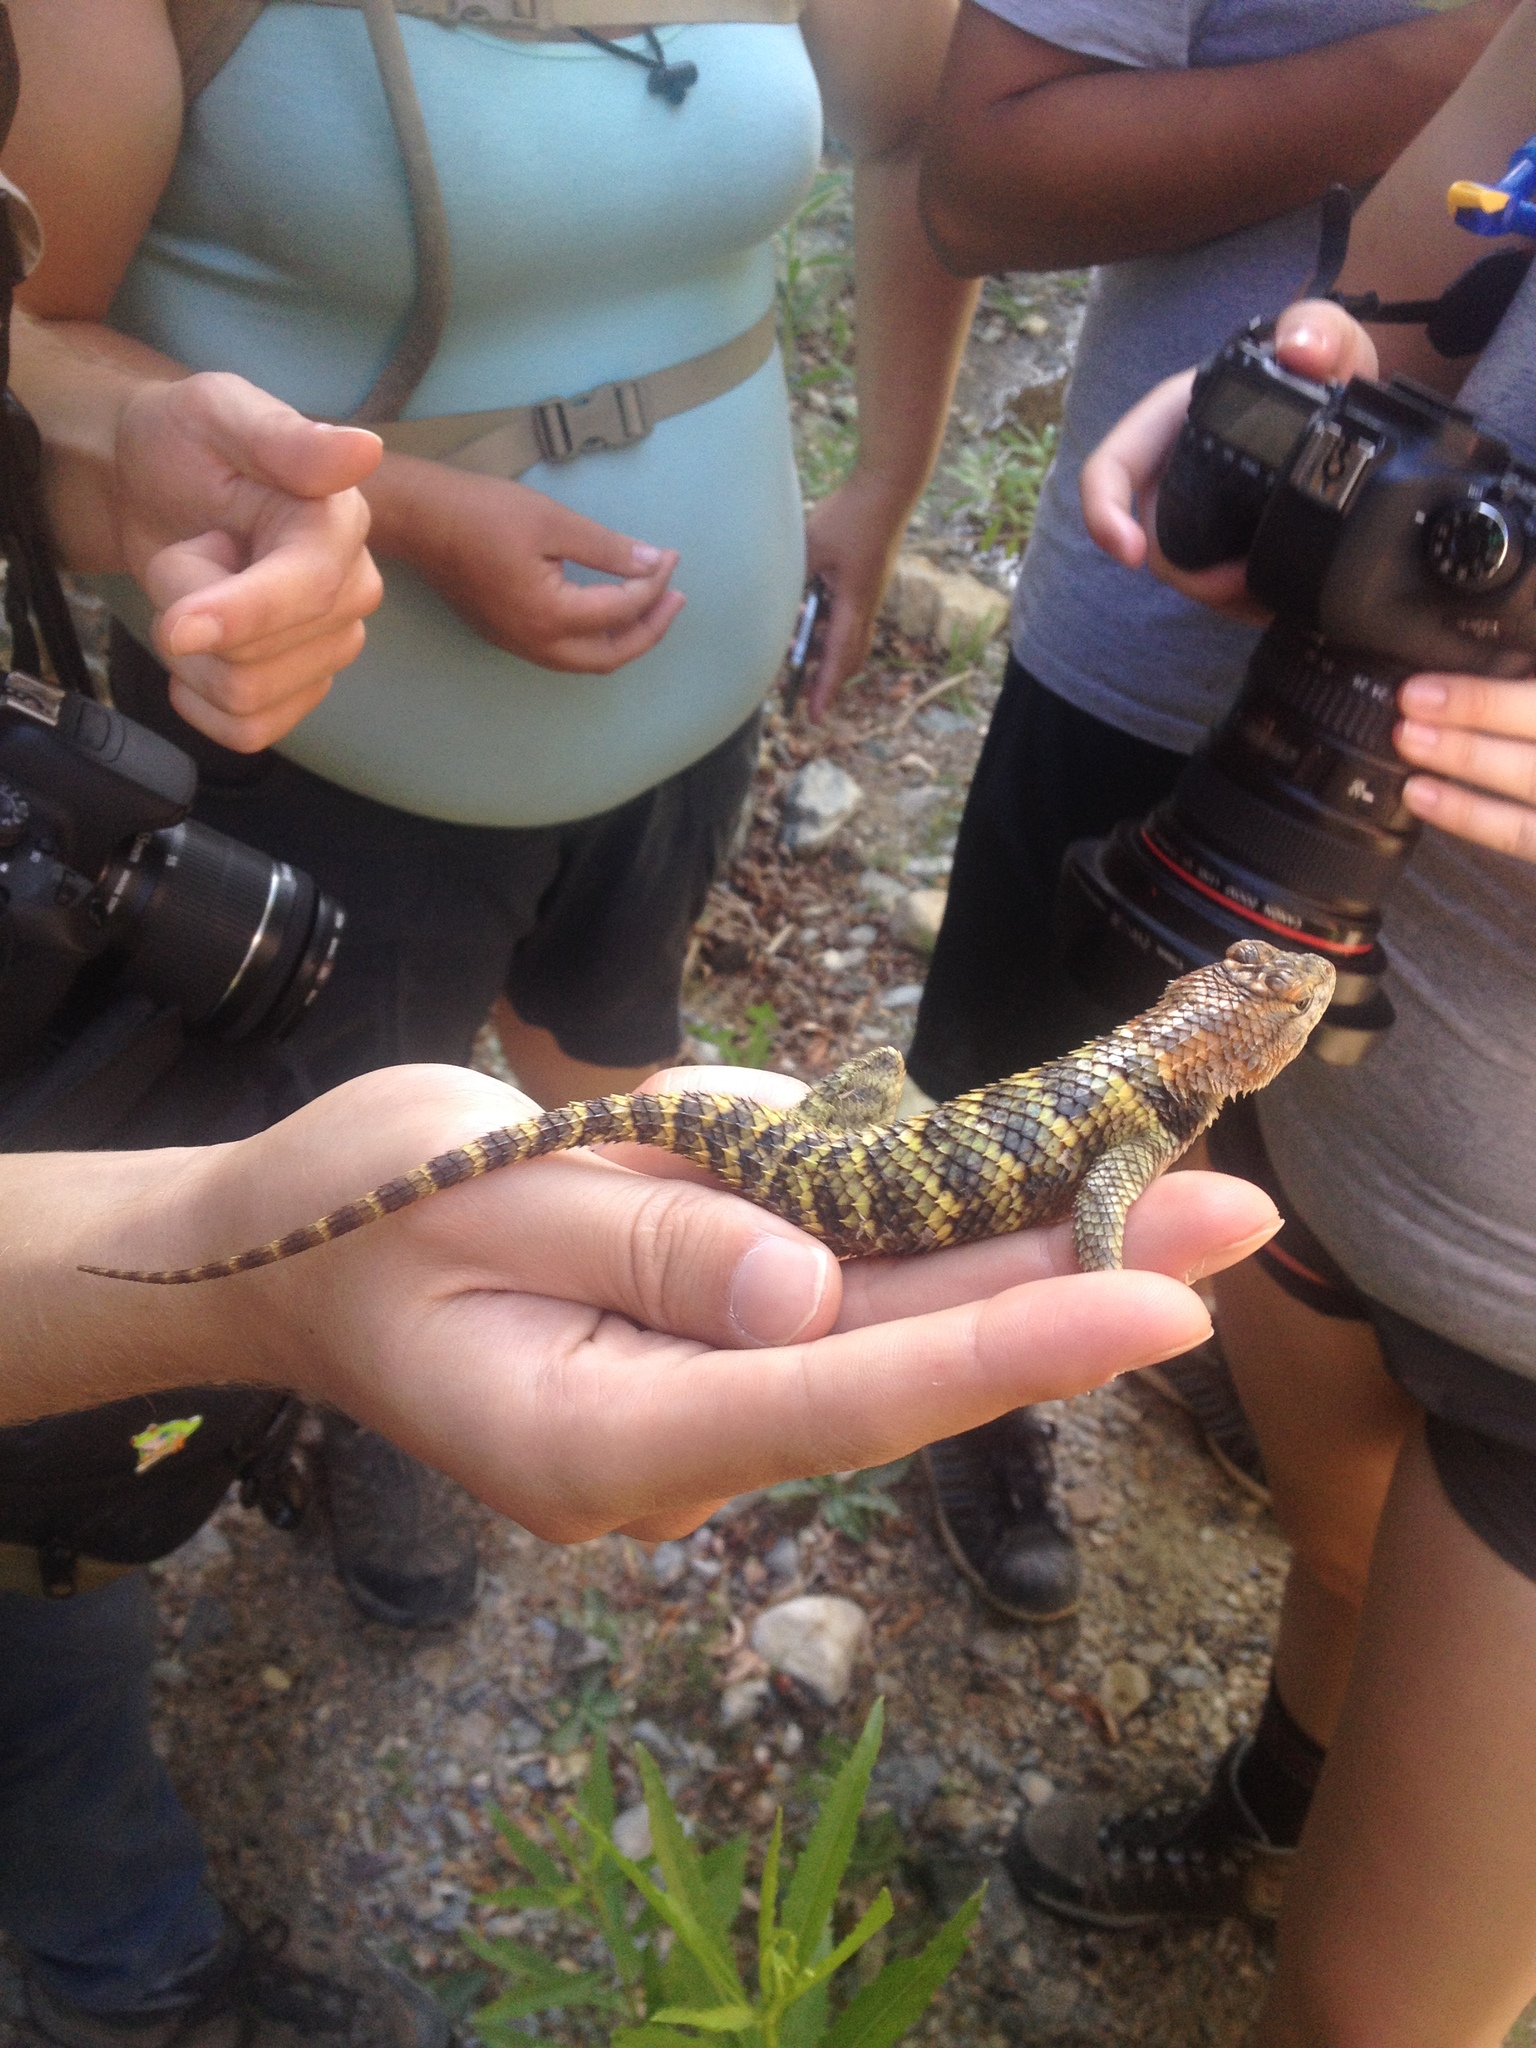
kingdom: Animalia
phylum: Chordata
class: Squamata
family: Phrynosomatidae
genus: Sceloporus
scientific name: Sceloporus uniformis
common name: Yellow-backed spiny lizard
